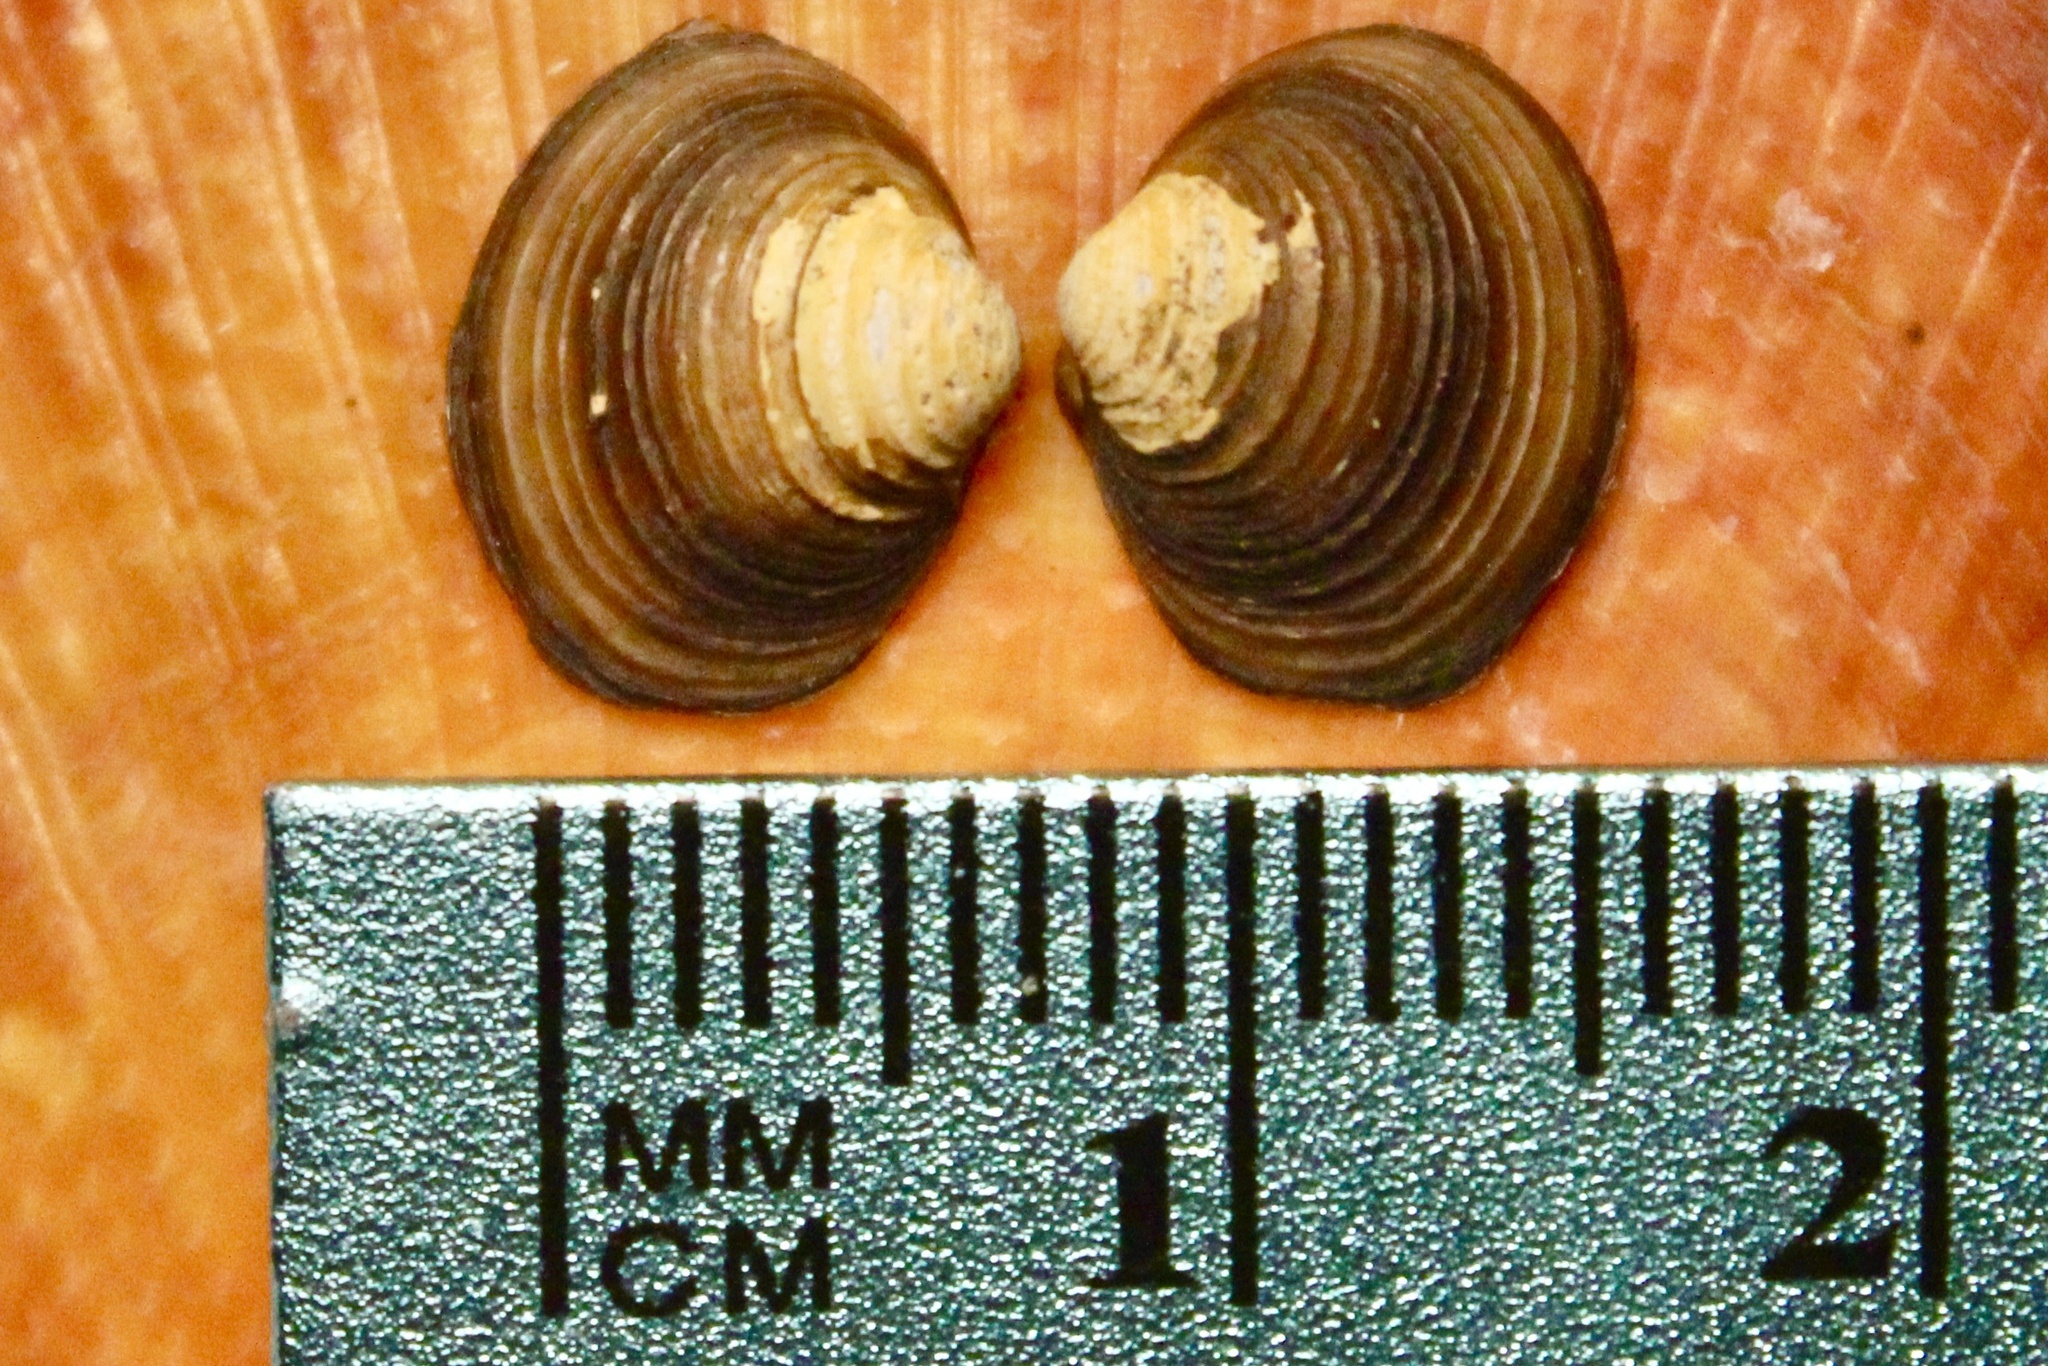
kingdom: Animalia
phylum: Mollusca
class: Bivalvia
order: Venerida
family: Cyrenidae
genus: Corbicula
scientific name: Corbicula fluminea
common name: Asian clam
